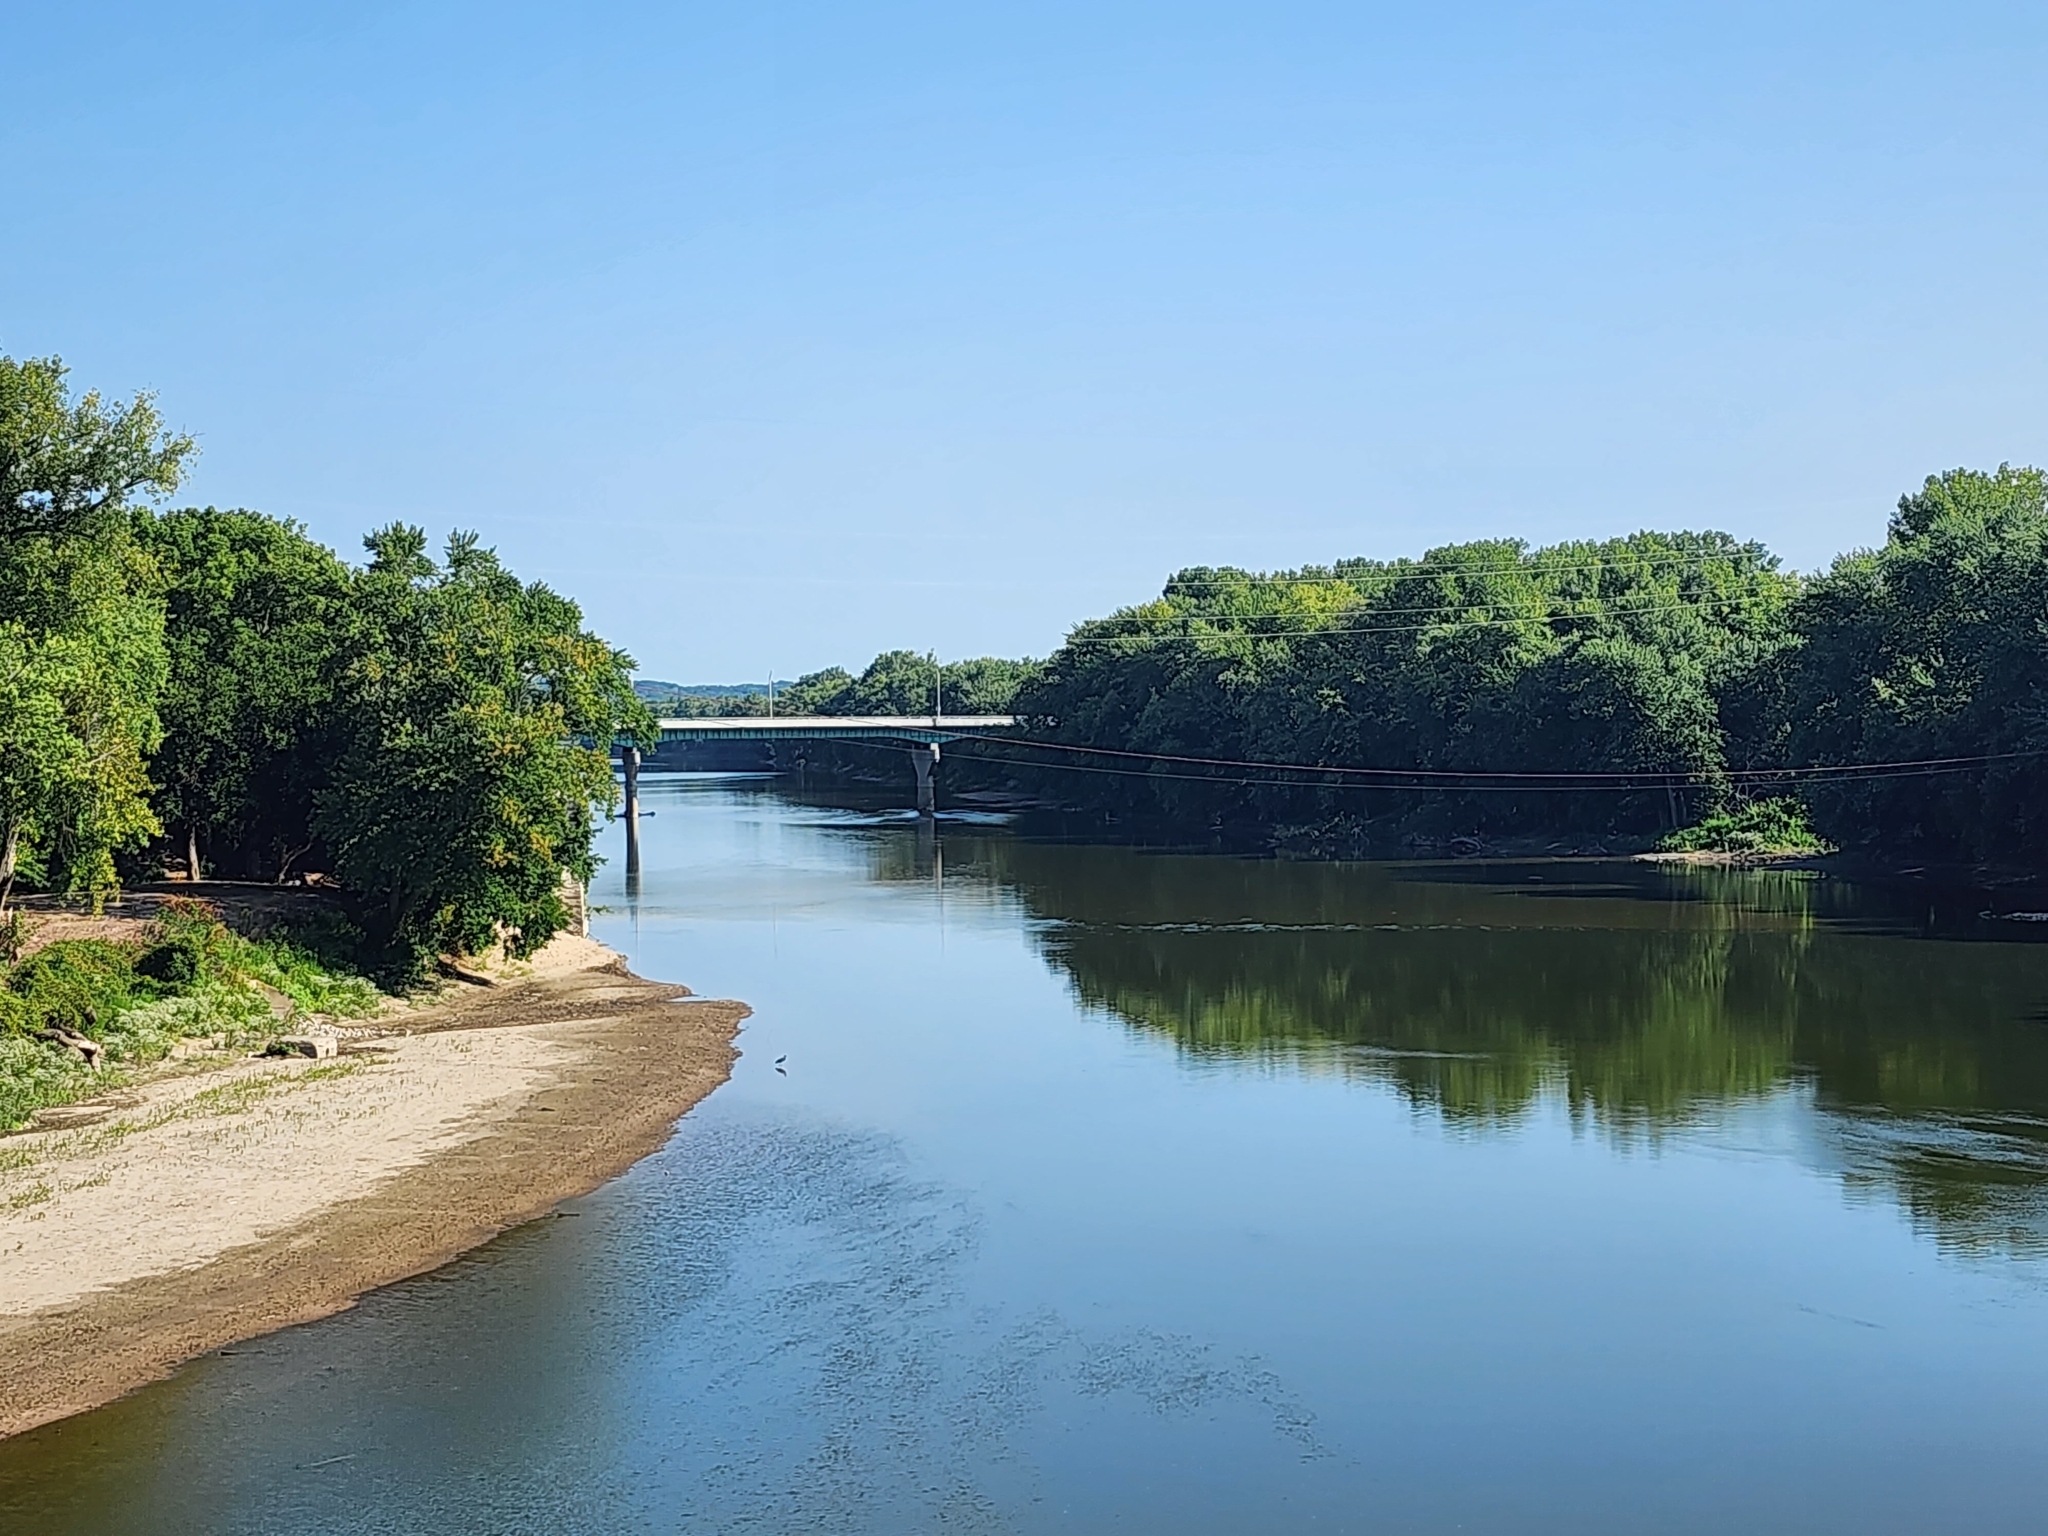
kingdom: Animalia
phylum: Chordata
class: Aves
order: Pelecaniformes
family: Ardeidae
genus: Ardea
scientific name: Ardea herodias
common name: Great blue heron
